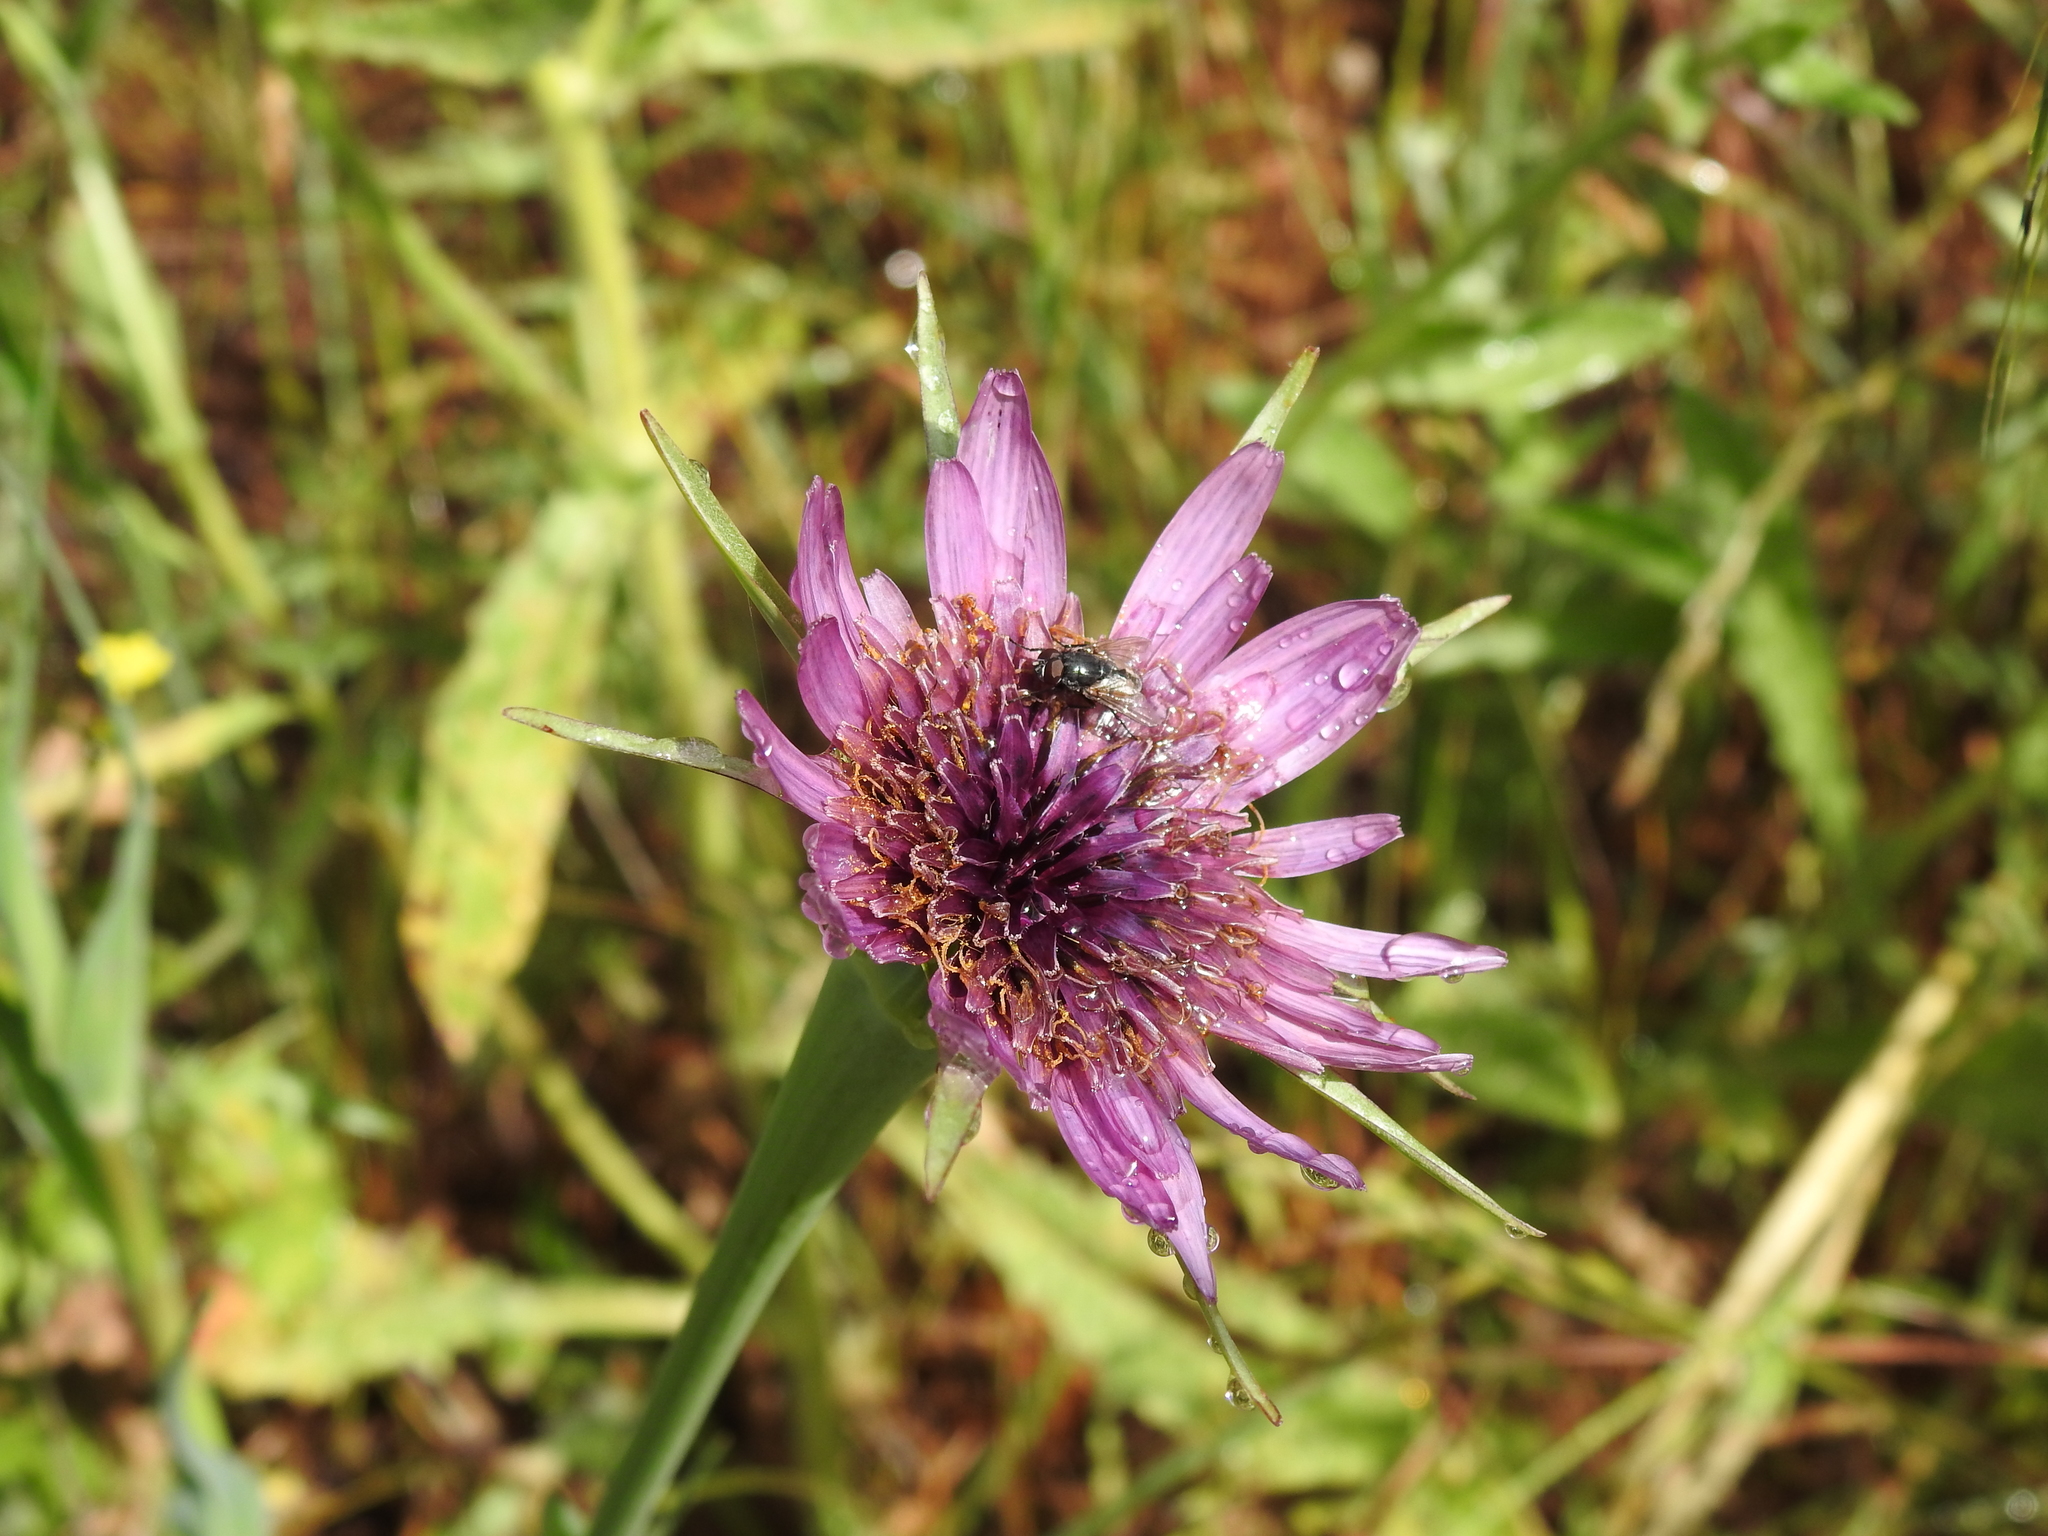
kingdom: Plantae
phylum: Tracheophyta
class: Magnoliopsida
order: Asterales
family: Asteraceae
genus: Tragopogon
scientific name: Tragopogon porrifolius
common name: Salsify
